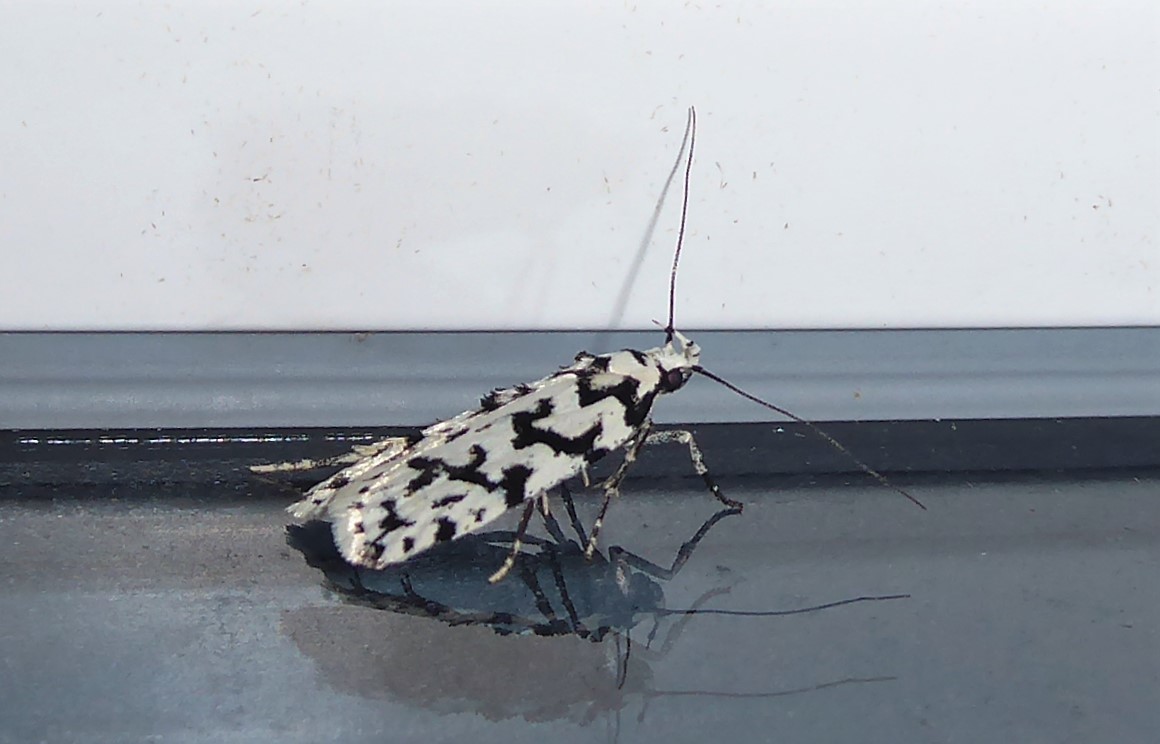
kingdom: Animalia
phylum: Arthropoda
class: Insecta
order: Lepidoptera
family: Oecophoridae
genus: Izatha
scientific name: Izatha katadiktya
